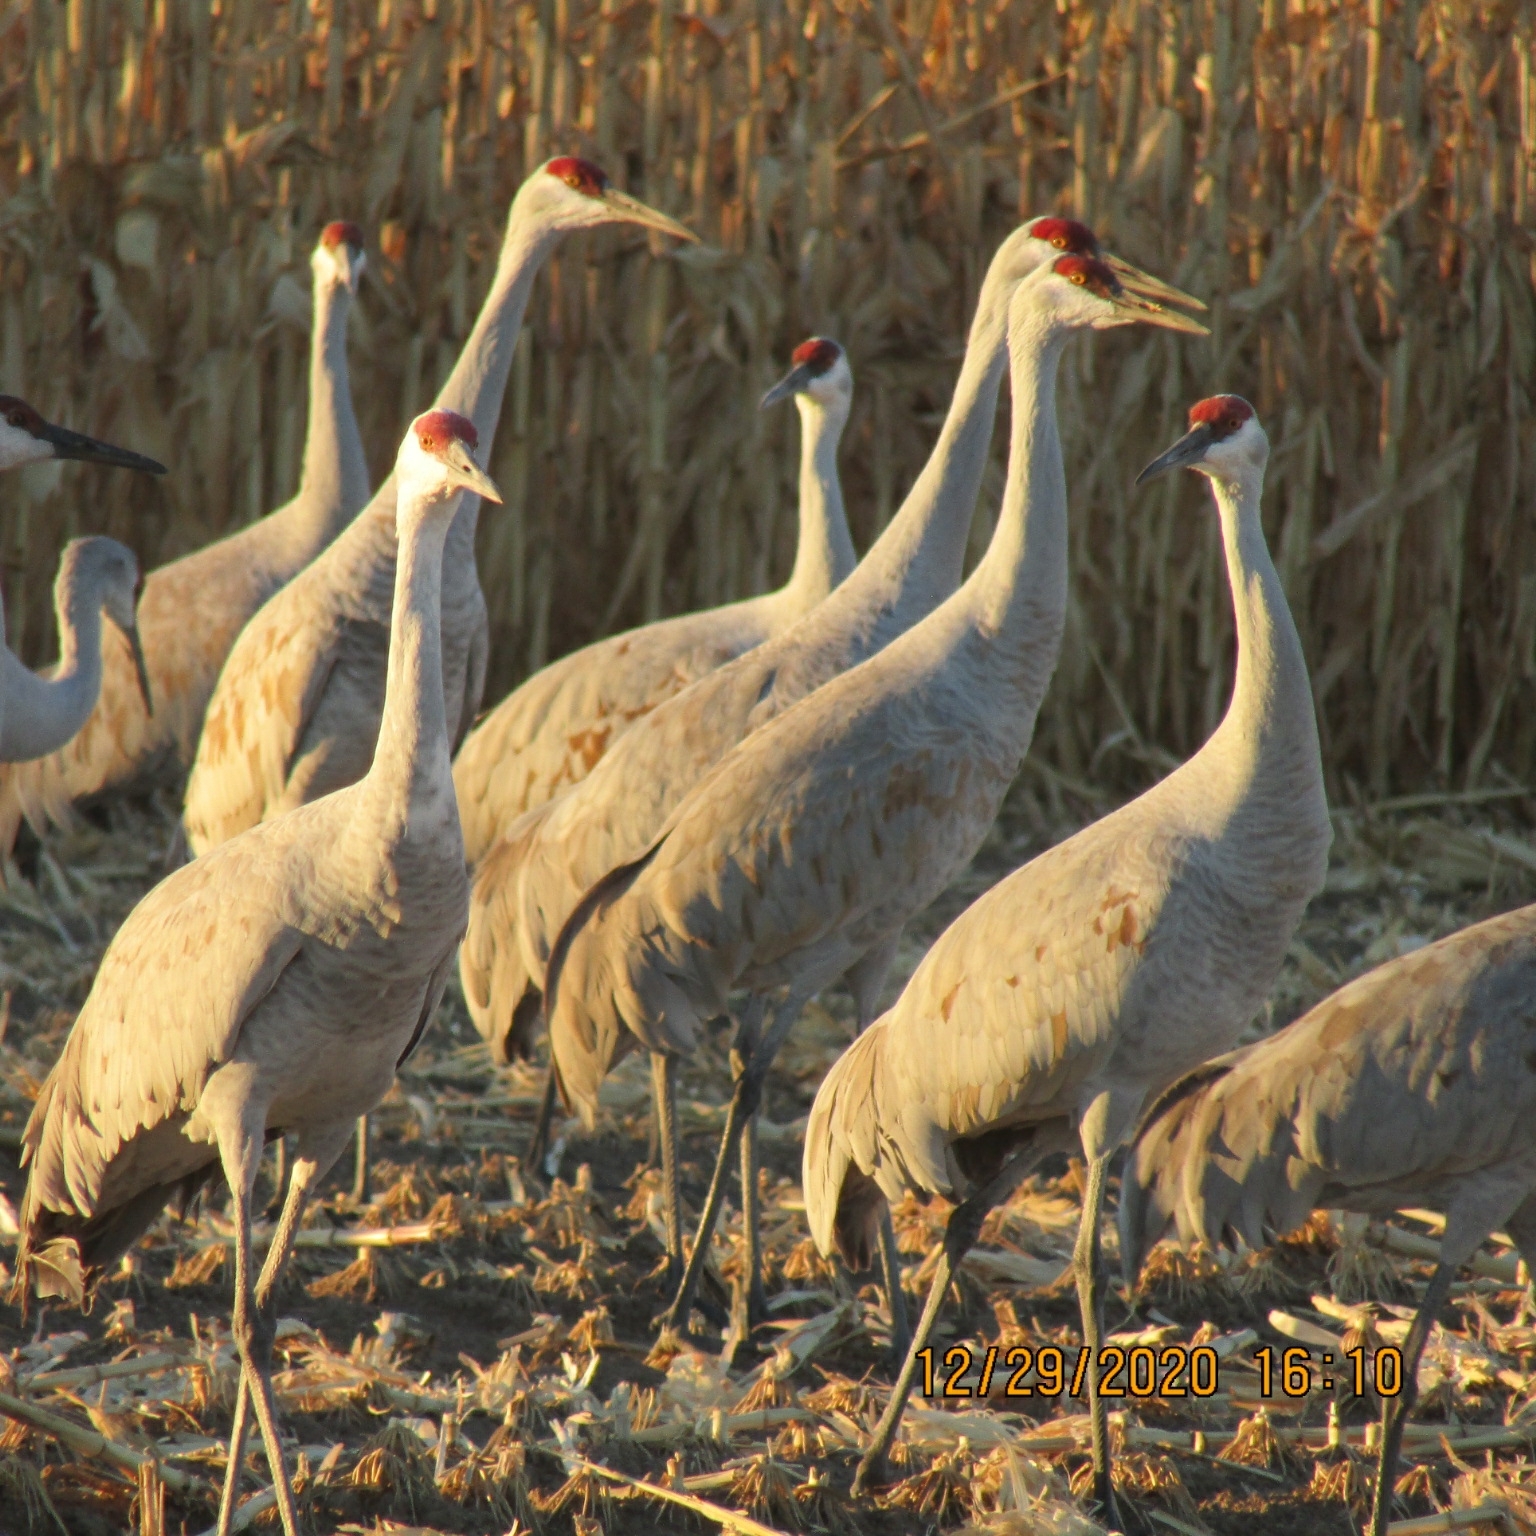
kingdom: Animalia
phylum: Chordata
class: Aves
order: Gruiformes
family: Gruidae
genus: Grus
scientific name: Grus canadensis
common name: Sandhill crane
